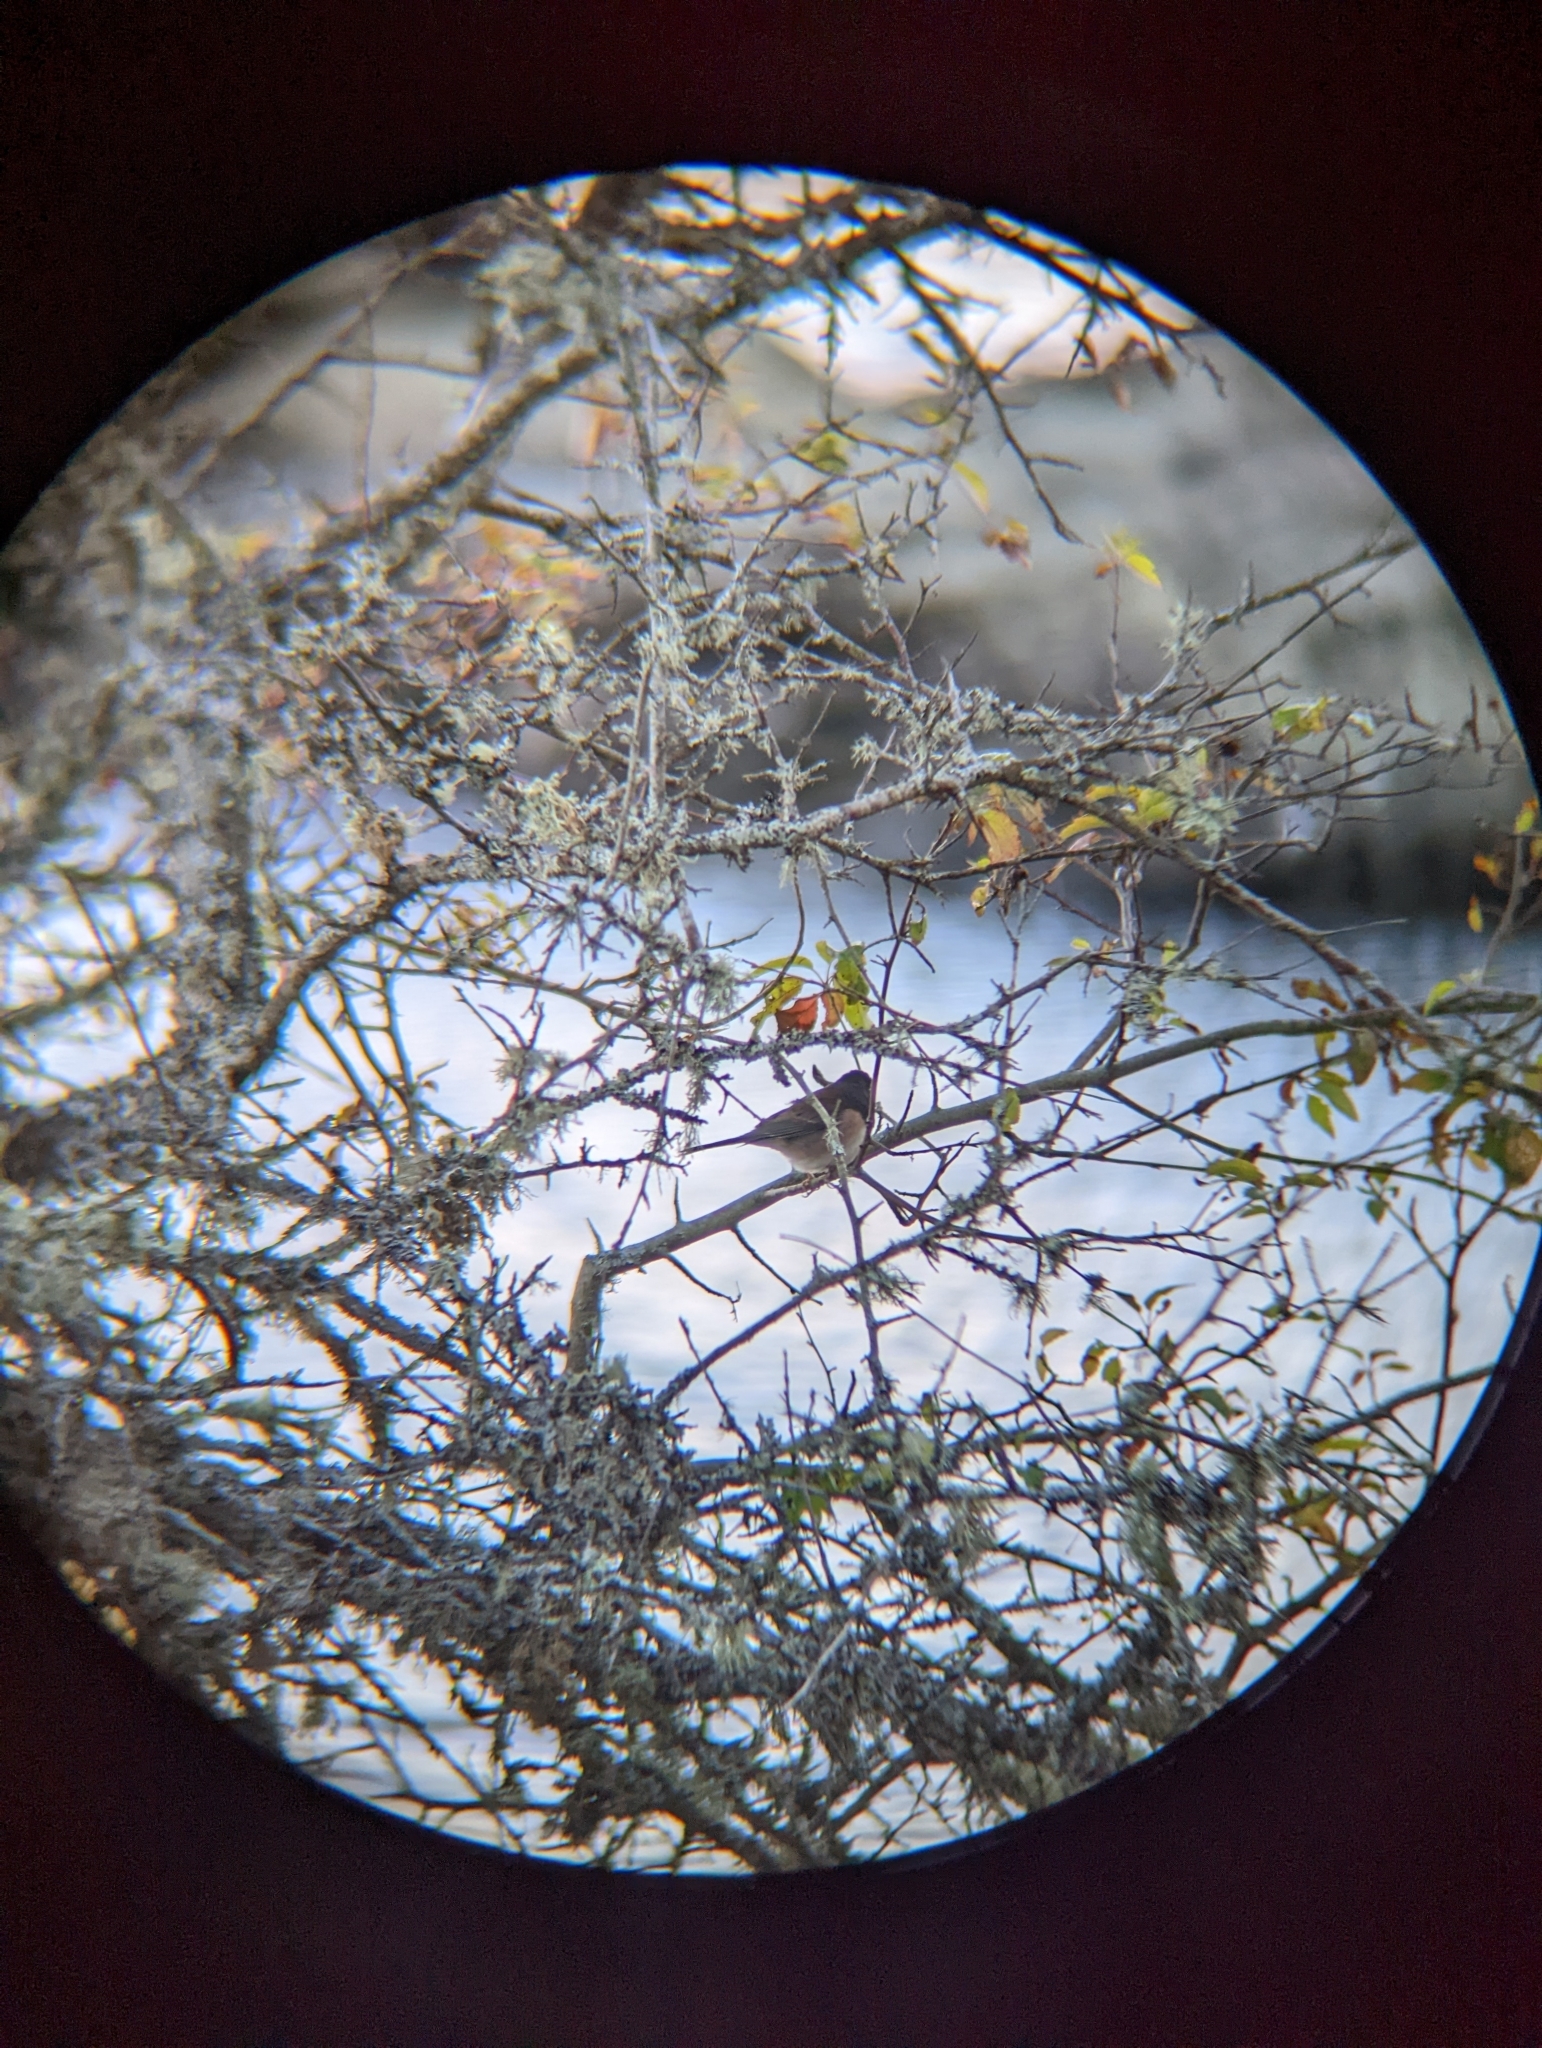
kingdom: Animalia
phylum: Chordata
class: Aves
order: Passeriformes
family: Passerellidae
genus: Junco
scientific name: Junco hyemalis
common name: Dark-eyed junco
